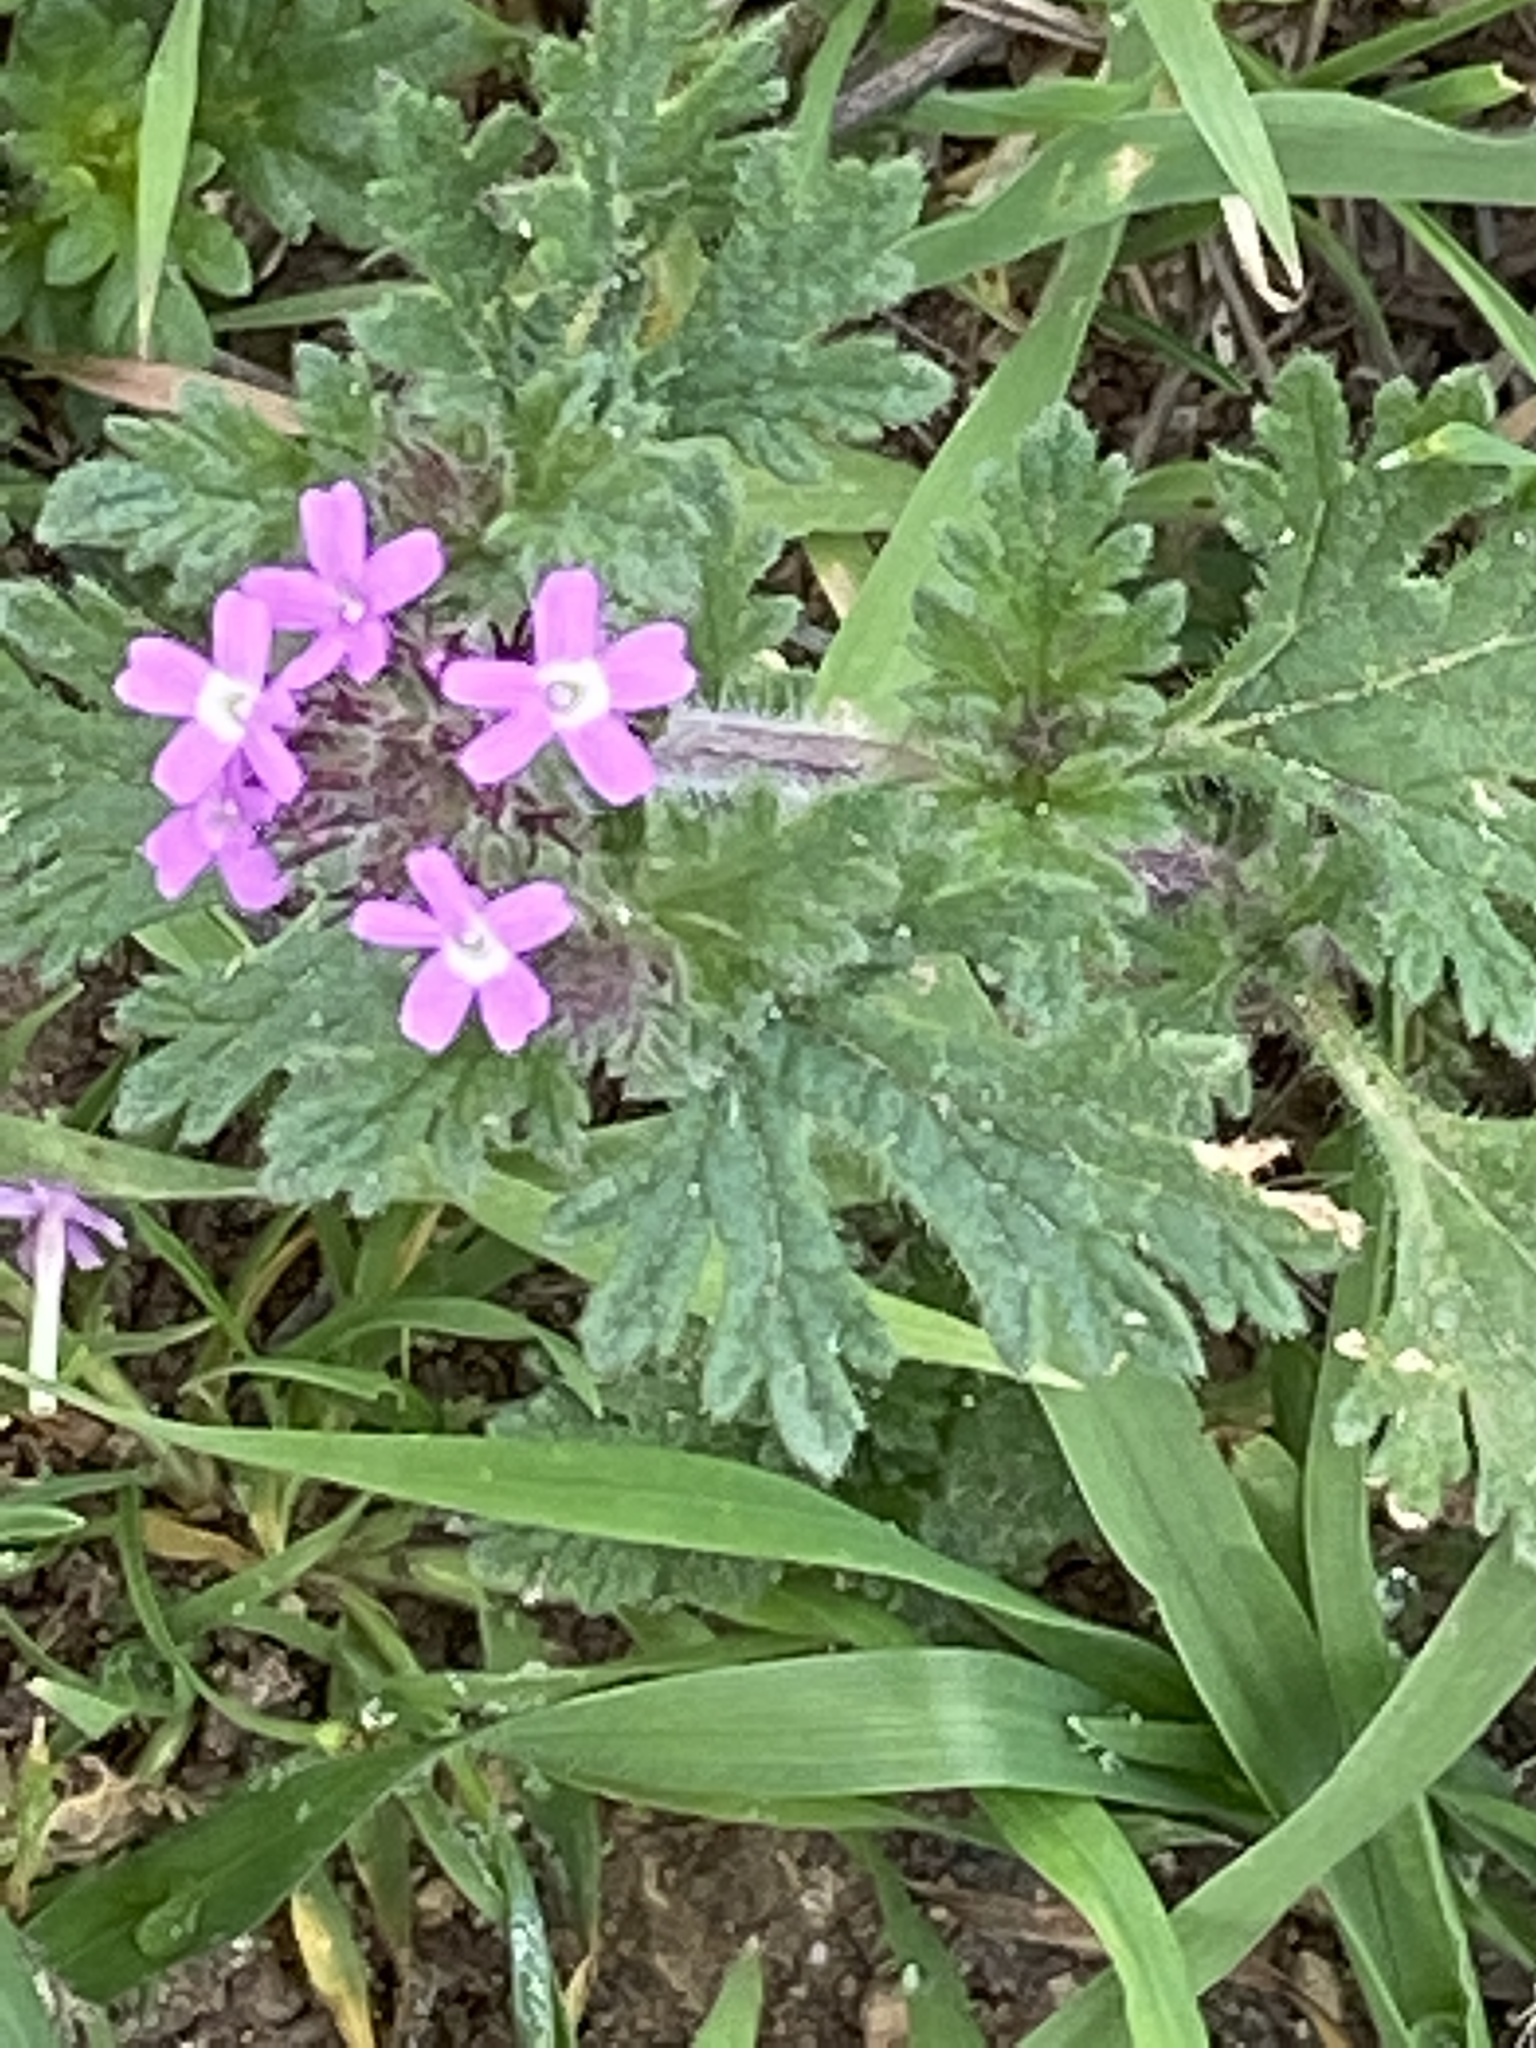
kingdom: Plantae
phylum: Tracheophyta
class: Magnoliopsida
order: Lamiales
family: Verbenaceae
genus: Verbena
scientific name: Verbena pumila
